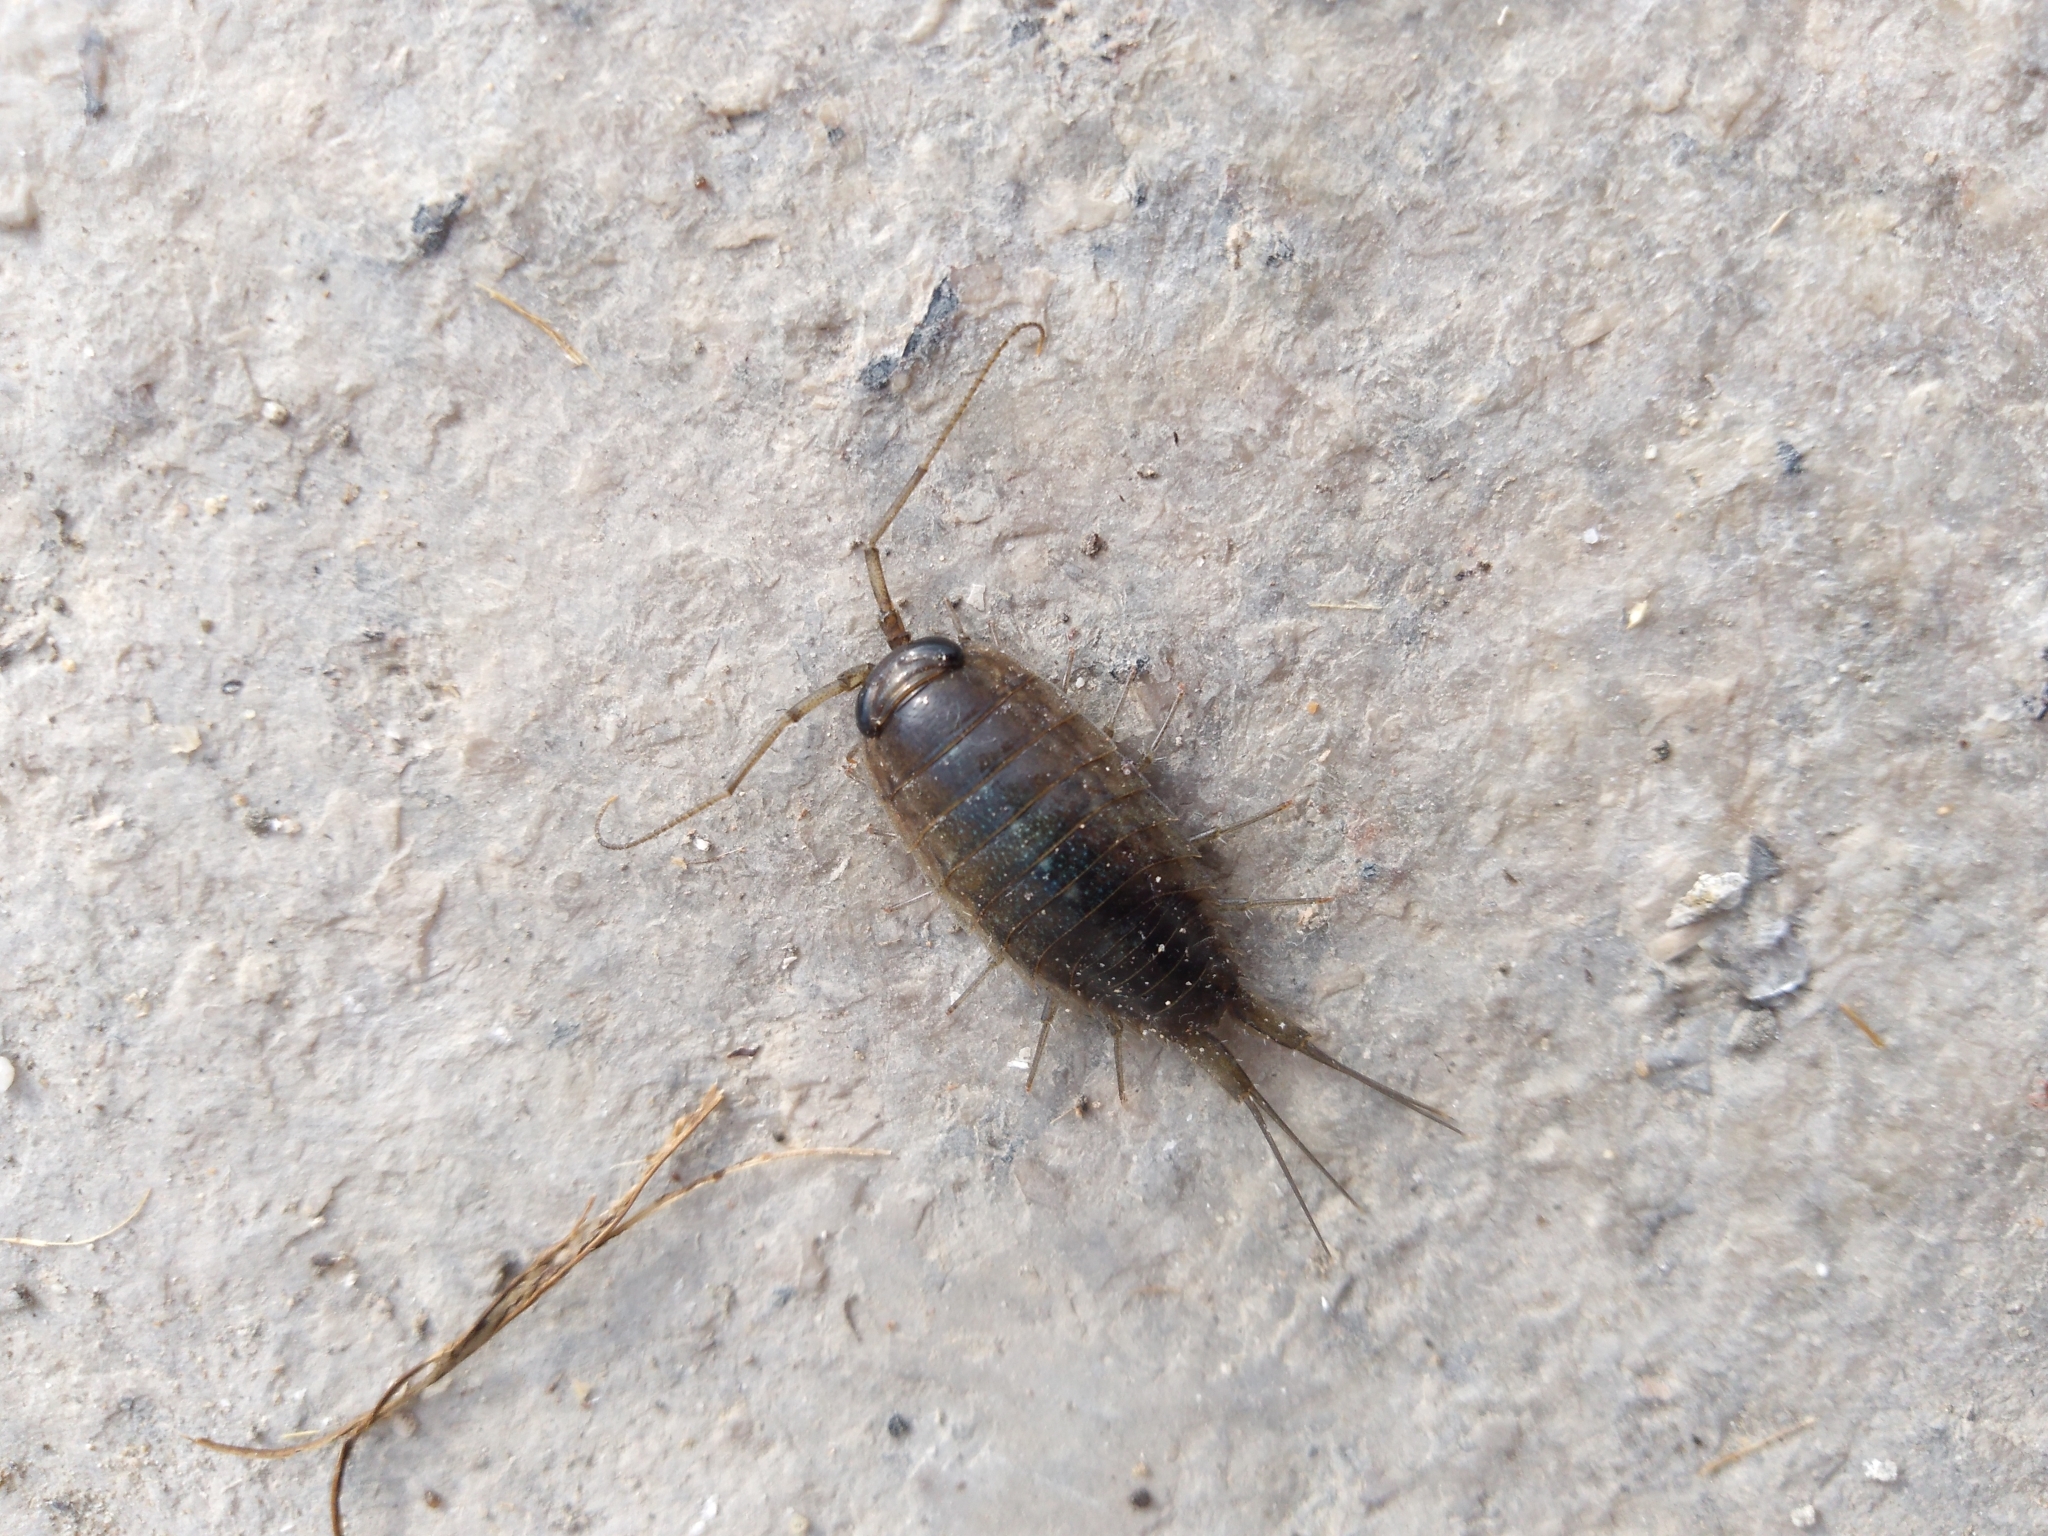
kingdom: Animalia
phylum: Arthropoda
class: Malacostraca
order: Isopoda
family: Ligiidae
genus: Ligia
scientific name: Ligia cinerascens
